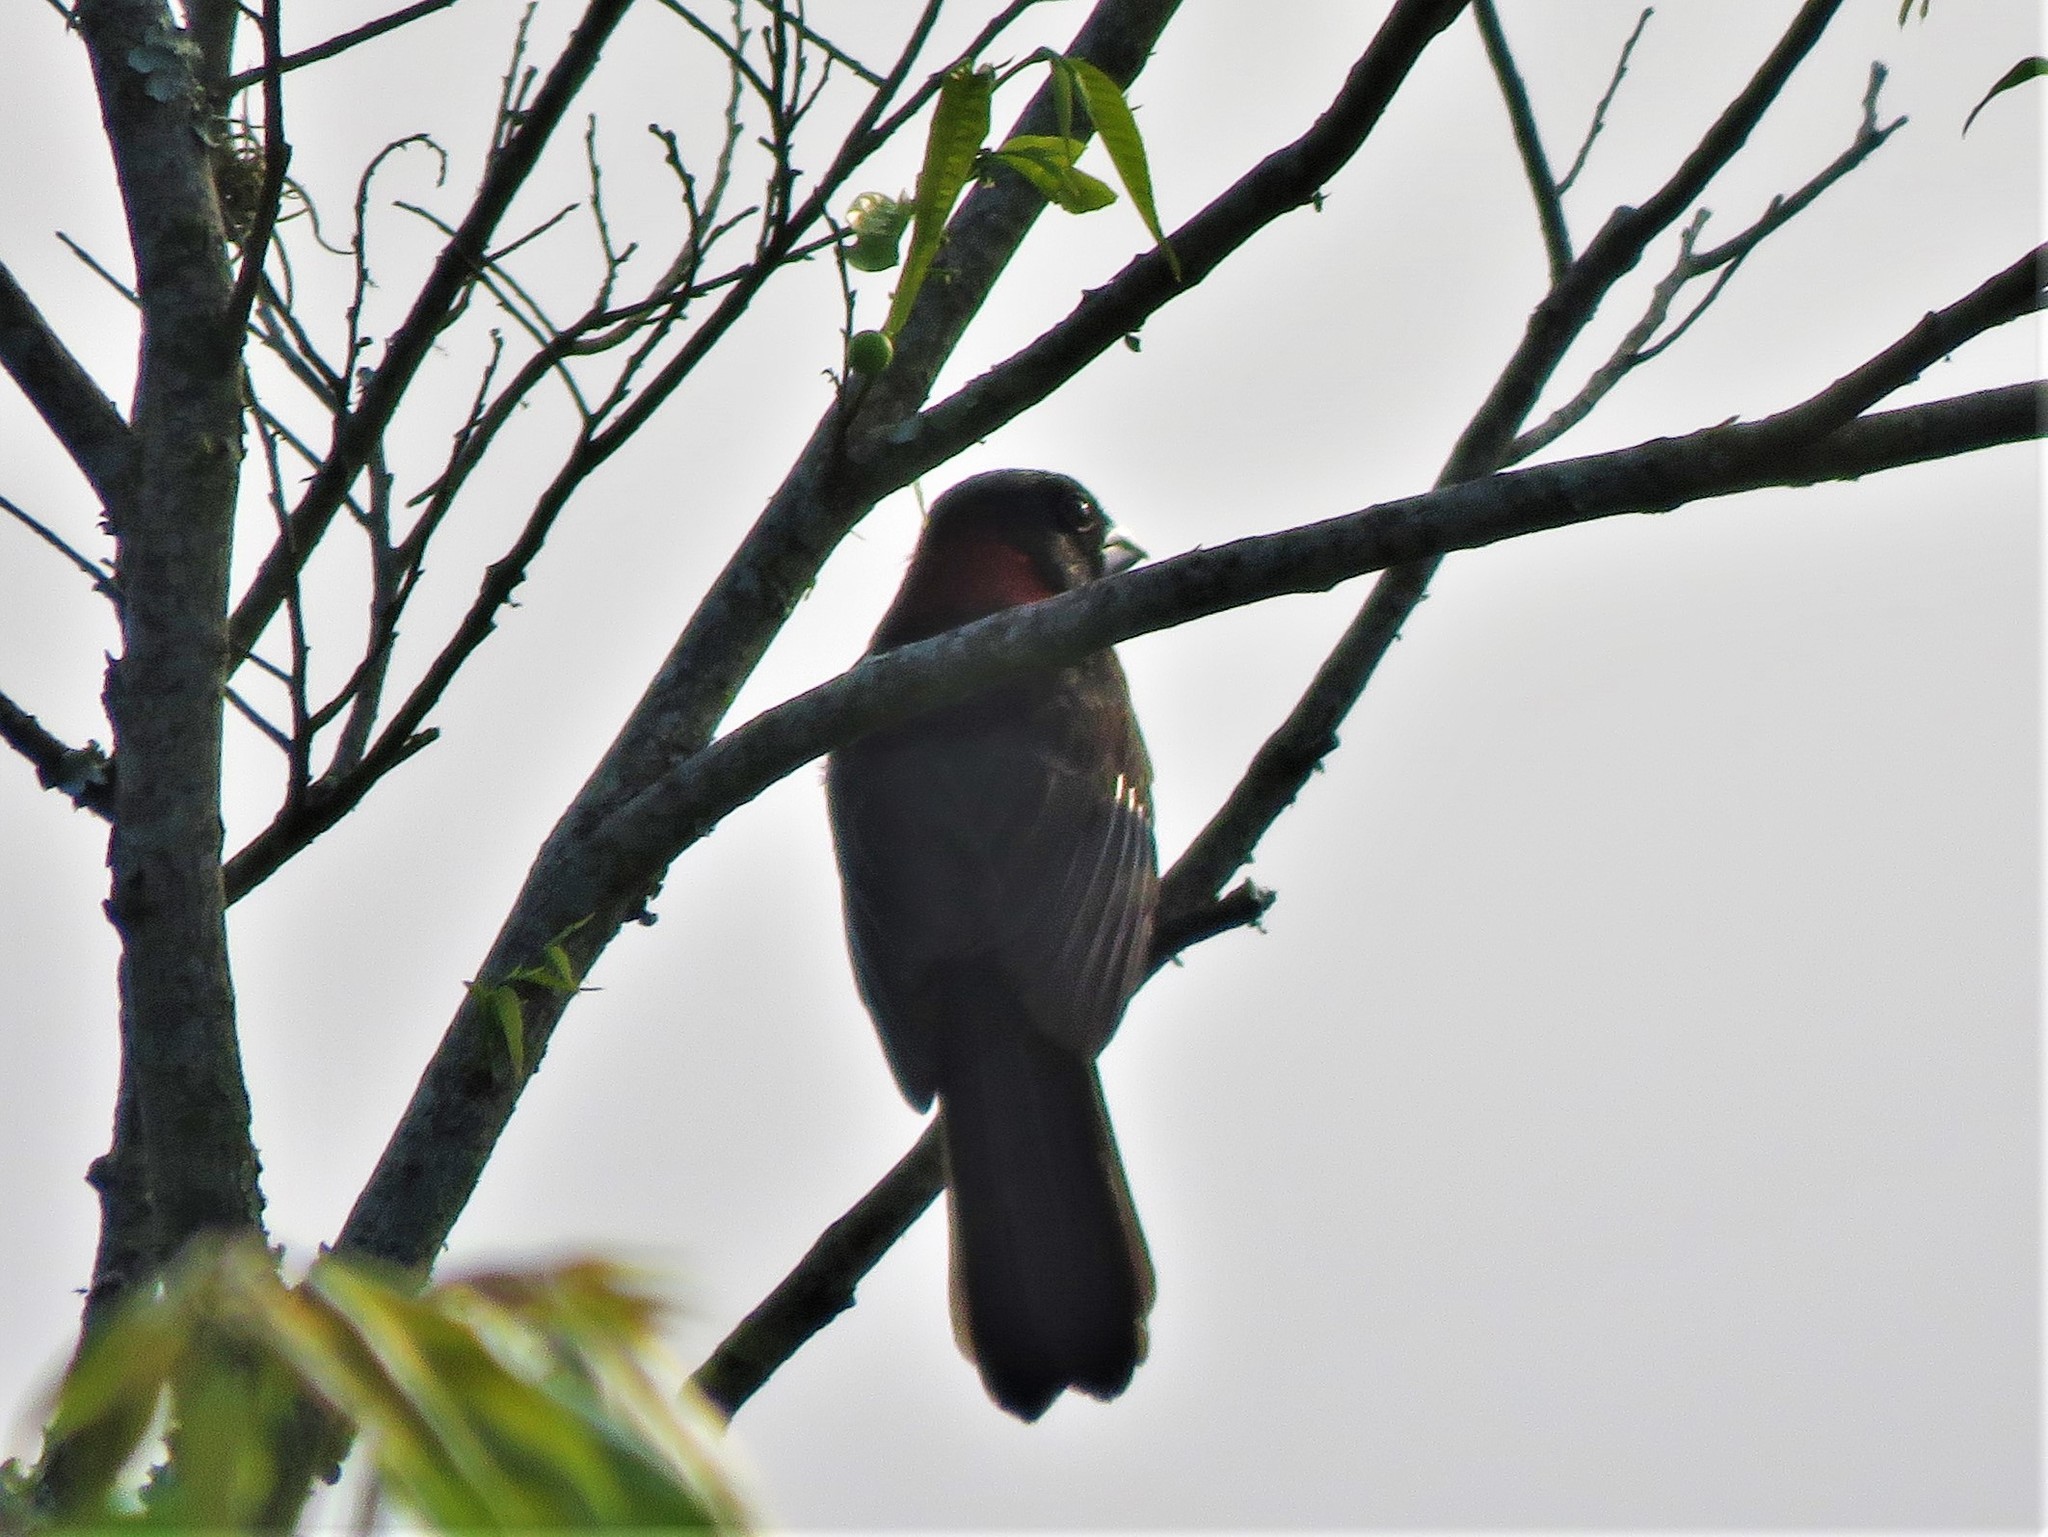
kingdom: Animalia
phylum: Chordata
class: Aves
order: Passeriformes
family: Cardinalidae
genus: Rhodothraupis
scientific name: Rhodothraupis celaeno
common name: Crimson-collared grosbeak
